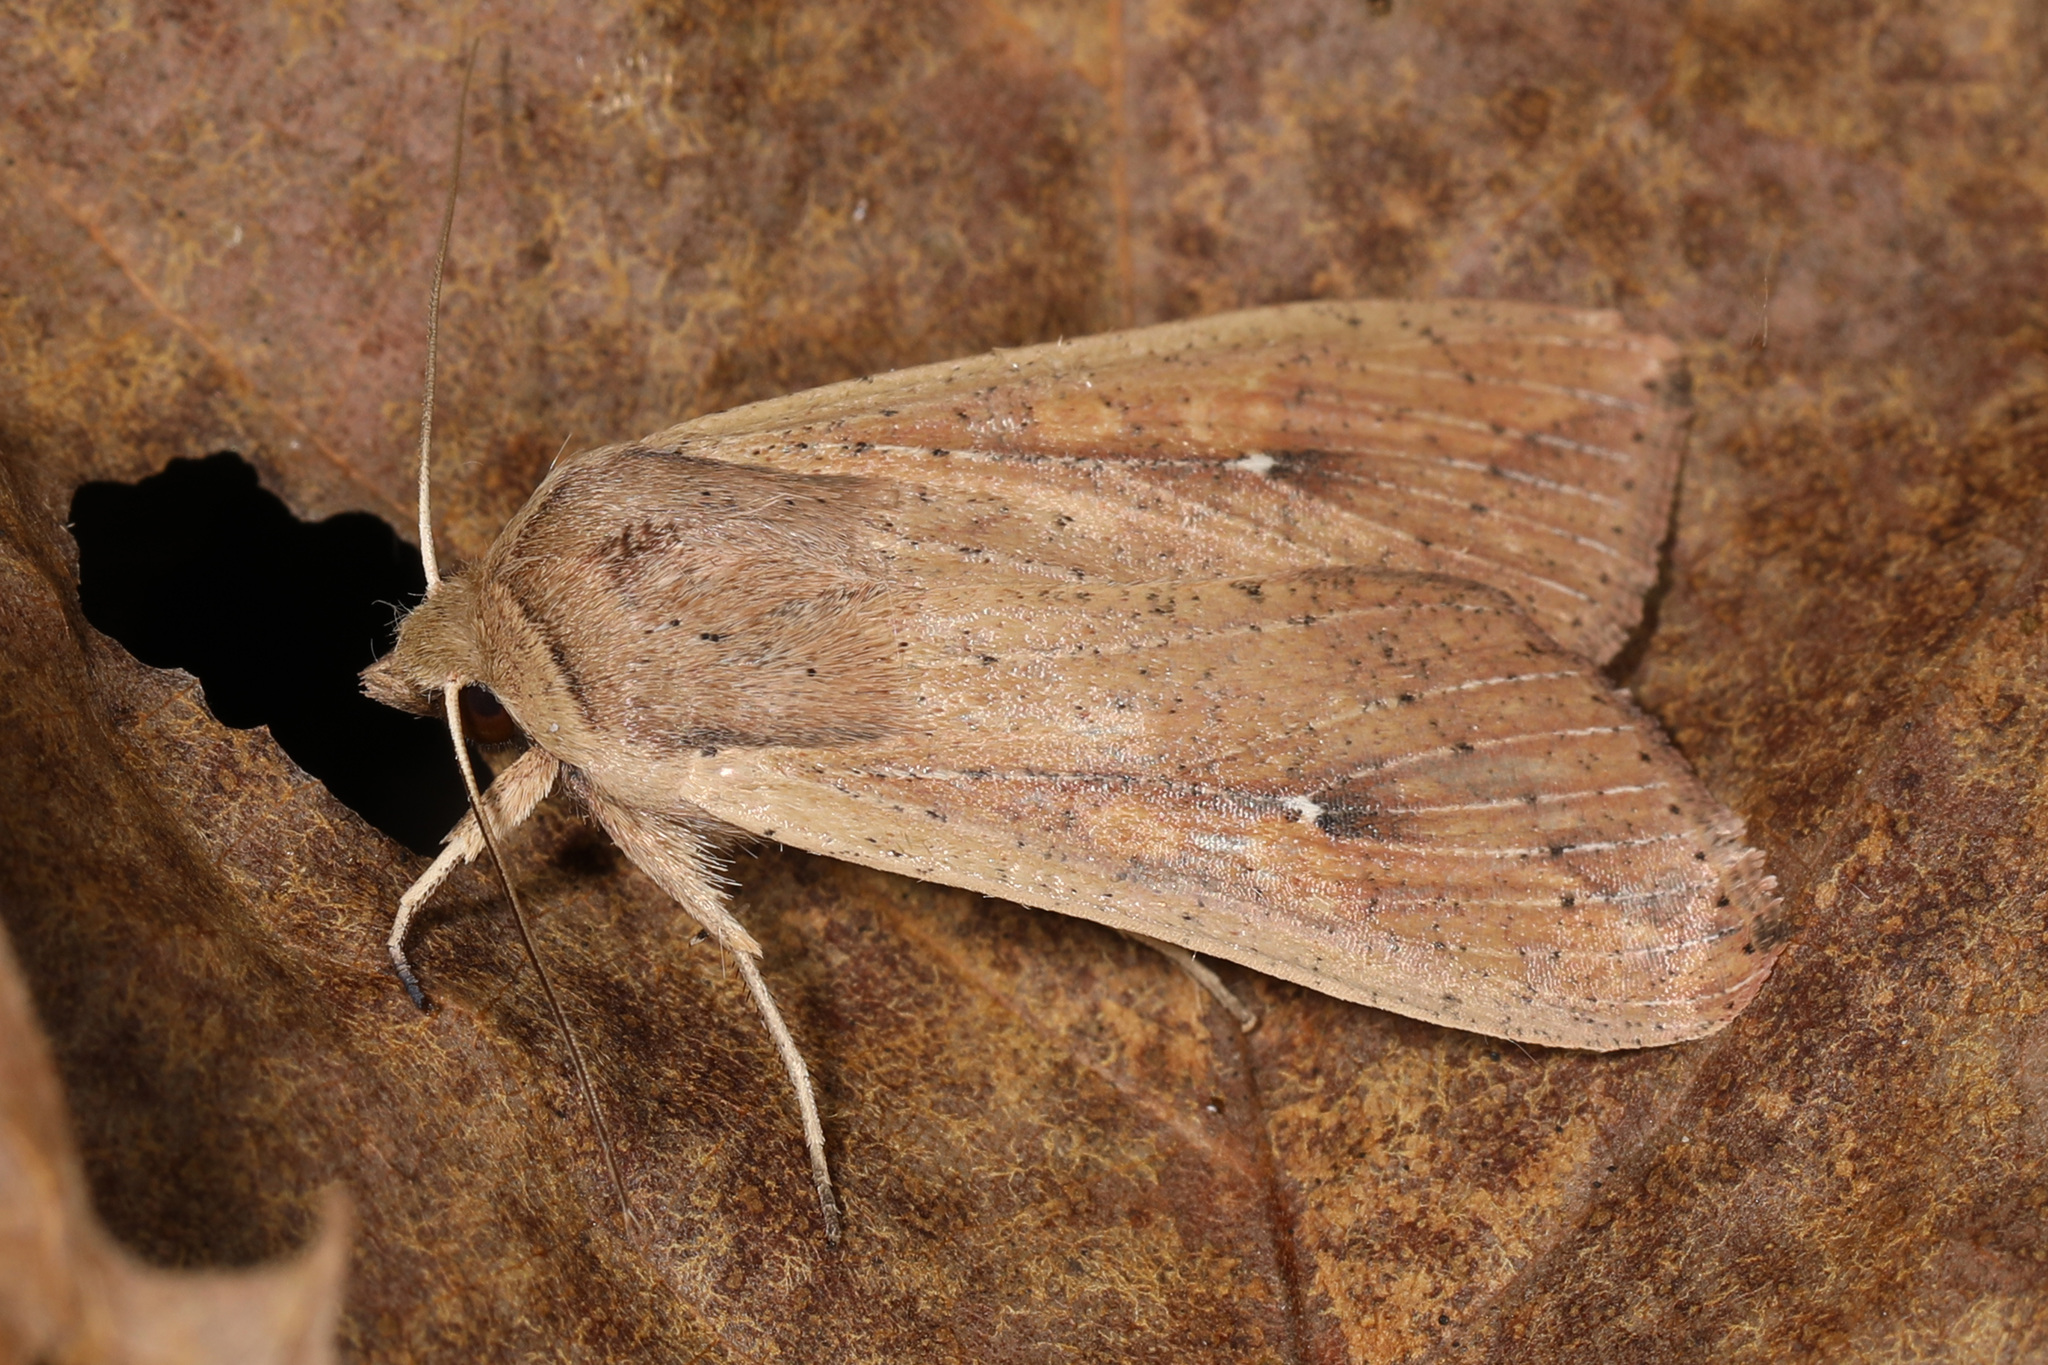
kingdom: Animalia
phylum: Arthropoda
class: Insecta
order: Lepidoptera
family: Noctuidae
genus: Mythimna
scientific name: Mythimna unipuncta
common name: White-speck
